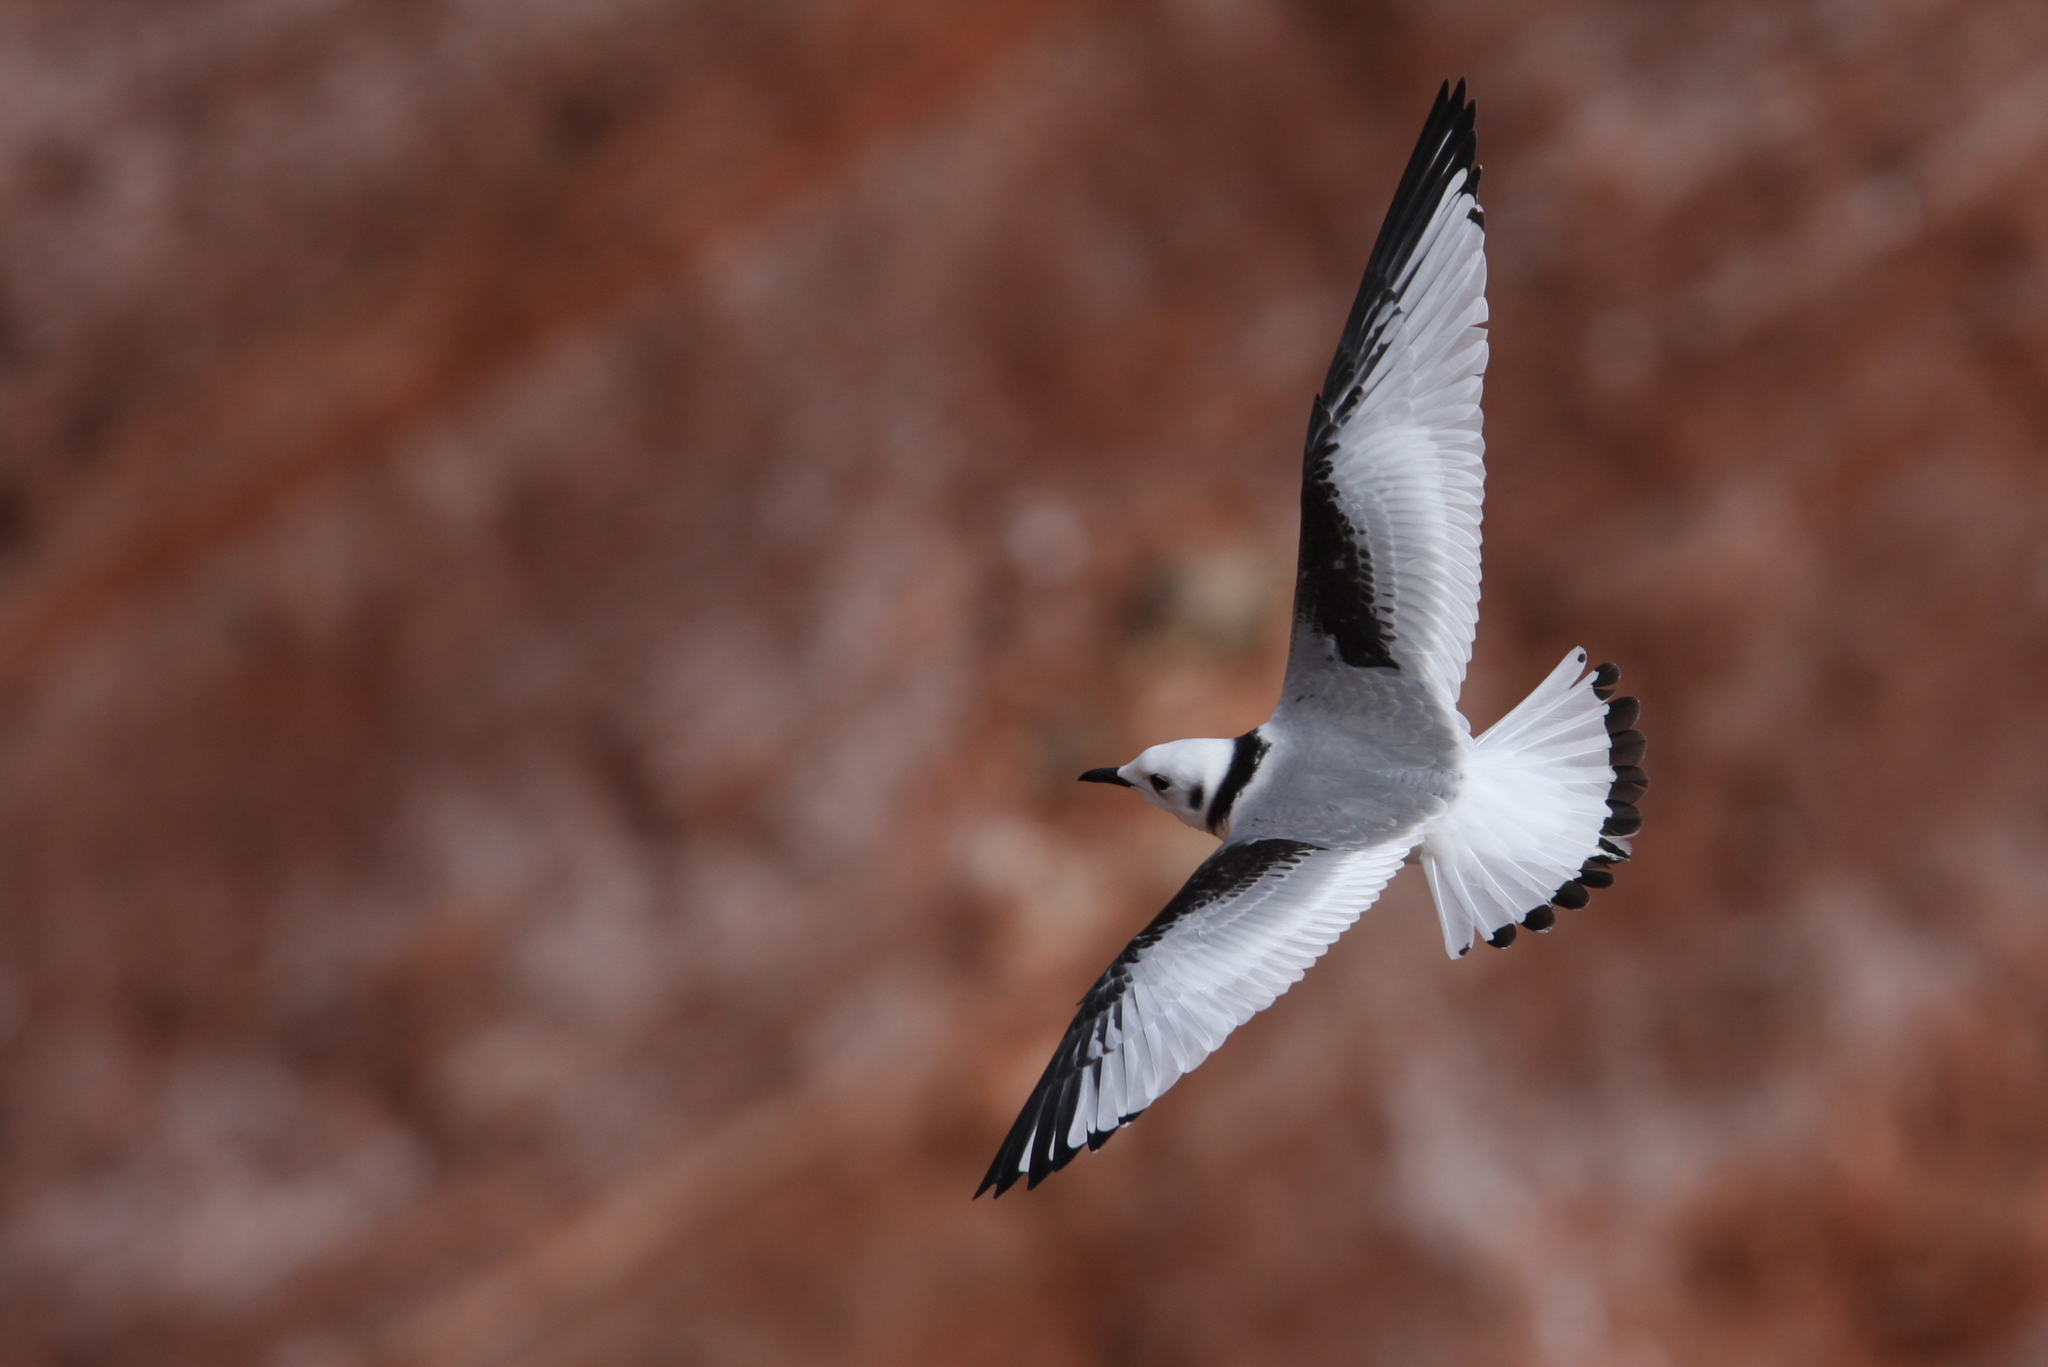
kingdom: Animalia
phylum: Chordata
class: Aves
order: Charadriiformes
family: Laridae
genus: Rissa
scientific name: Rissa tridactyla
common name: Black-legged kittiwake
